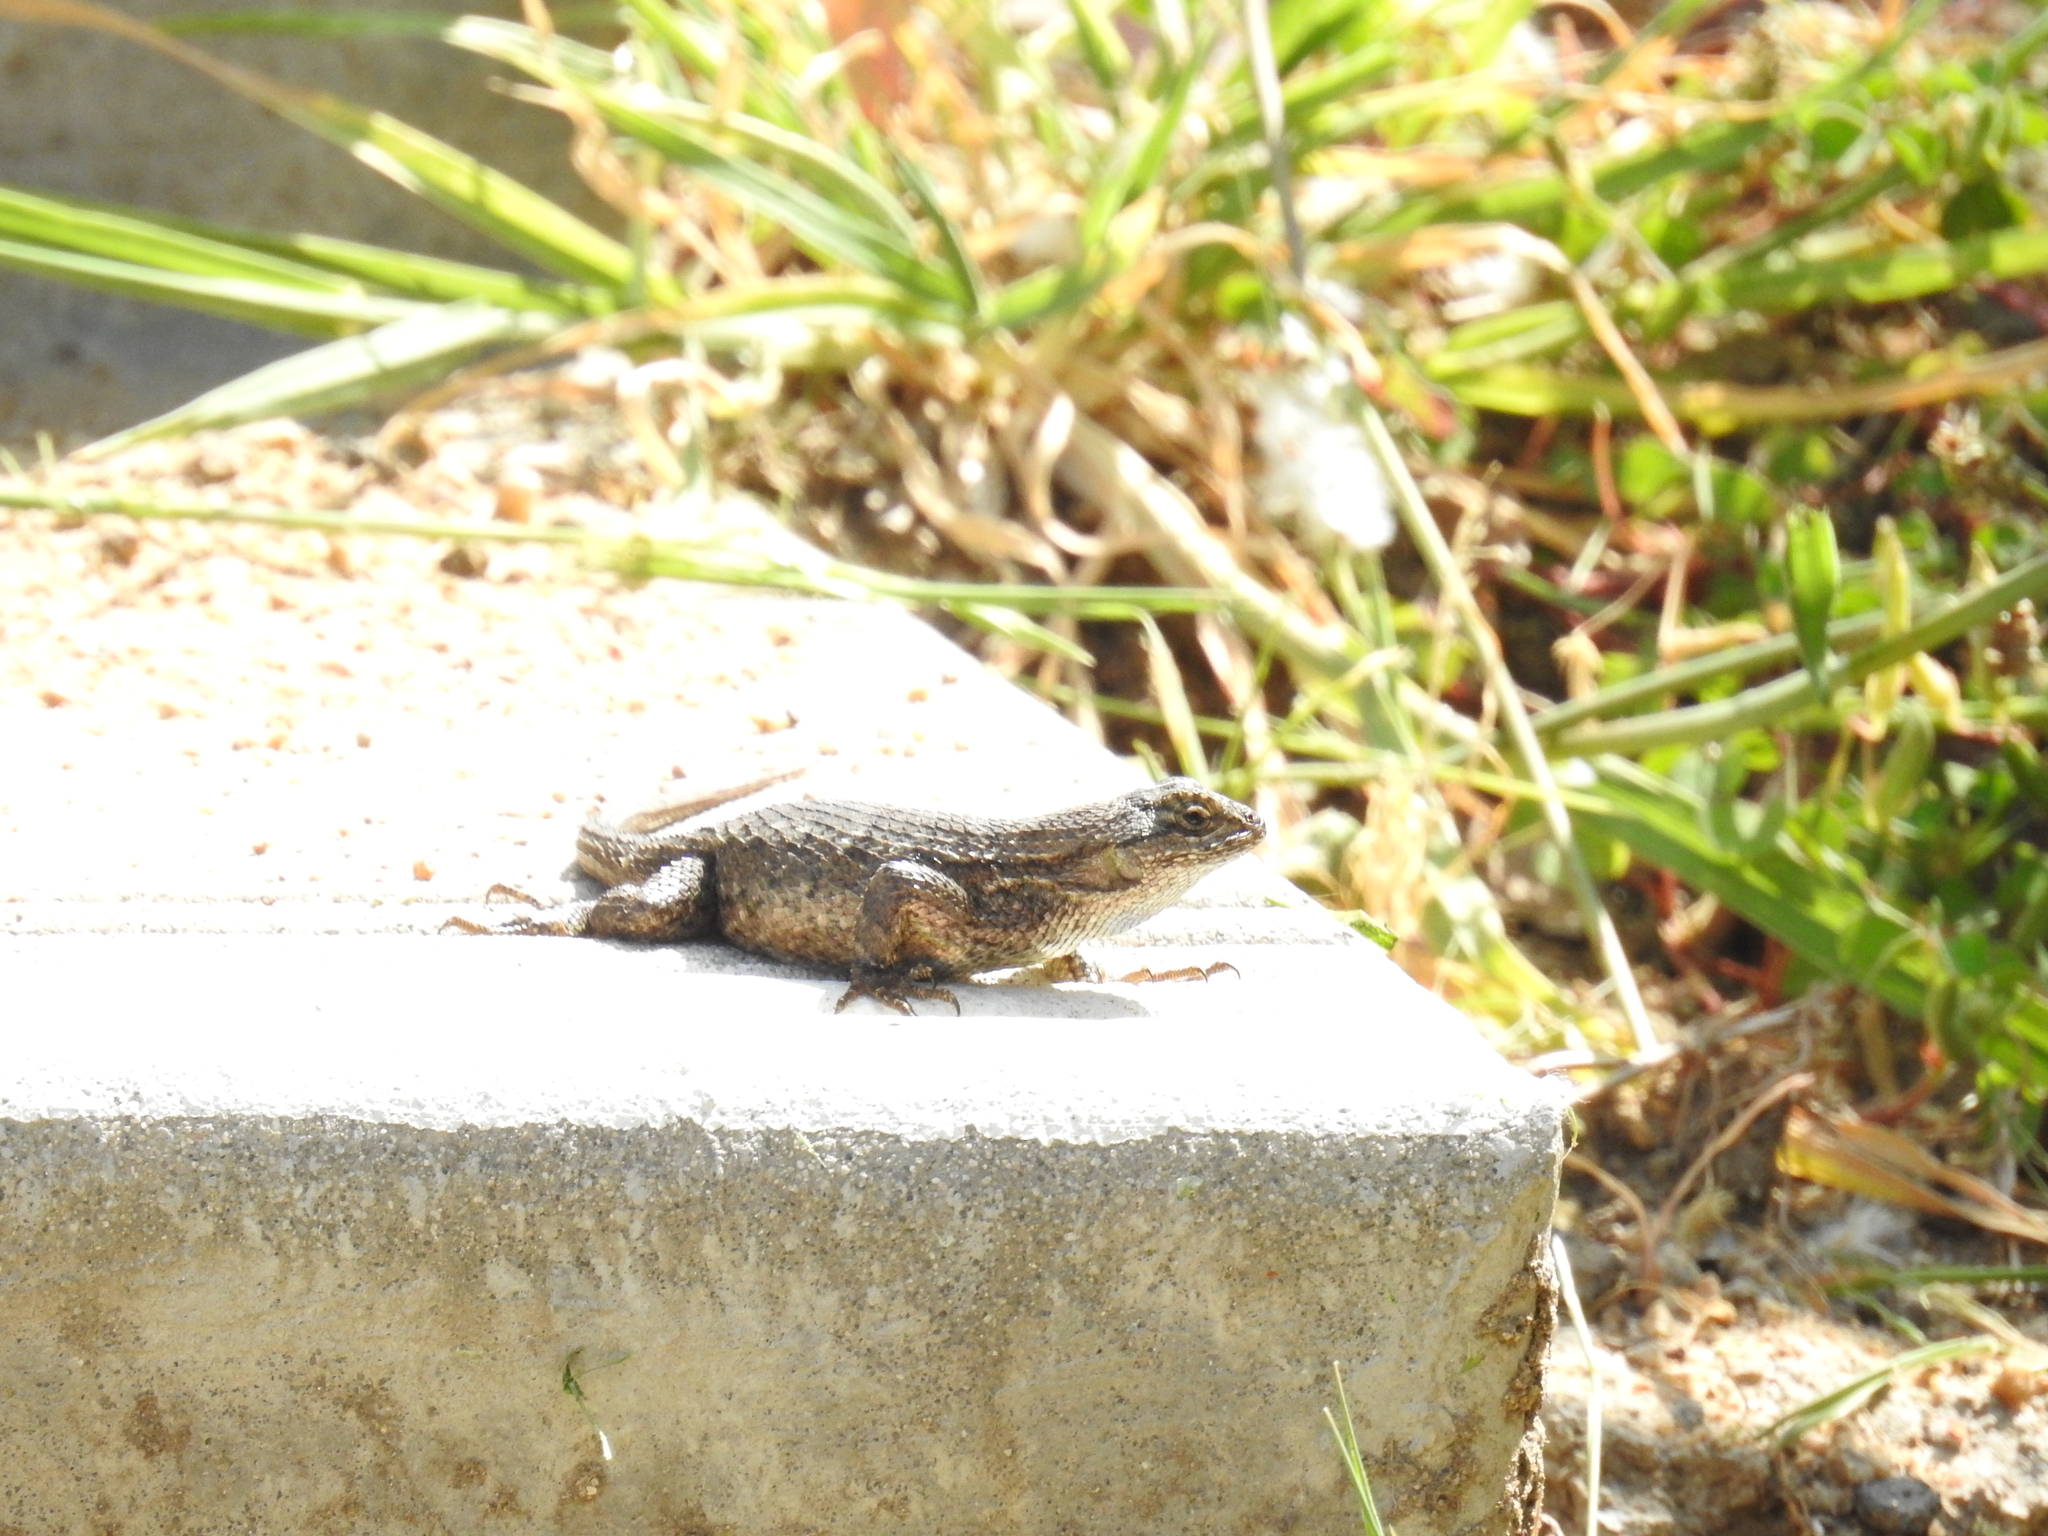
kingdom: Animalia
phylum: Chordata
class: Squamata
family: Phrynosomatidae
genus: Sceloporus
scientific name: Sceloporus occidentalis
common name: Western fence lizard
